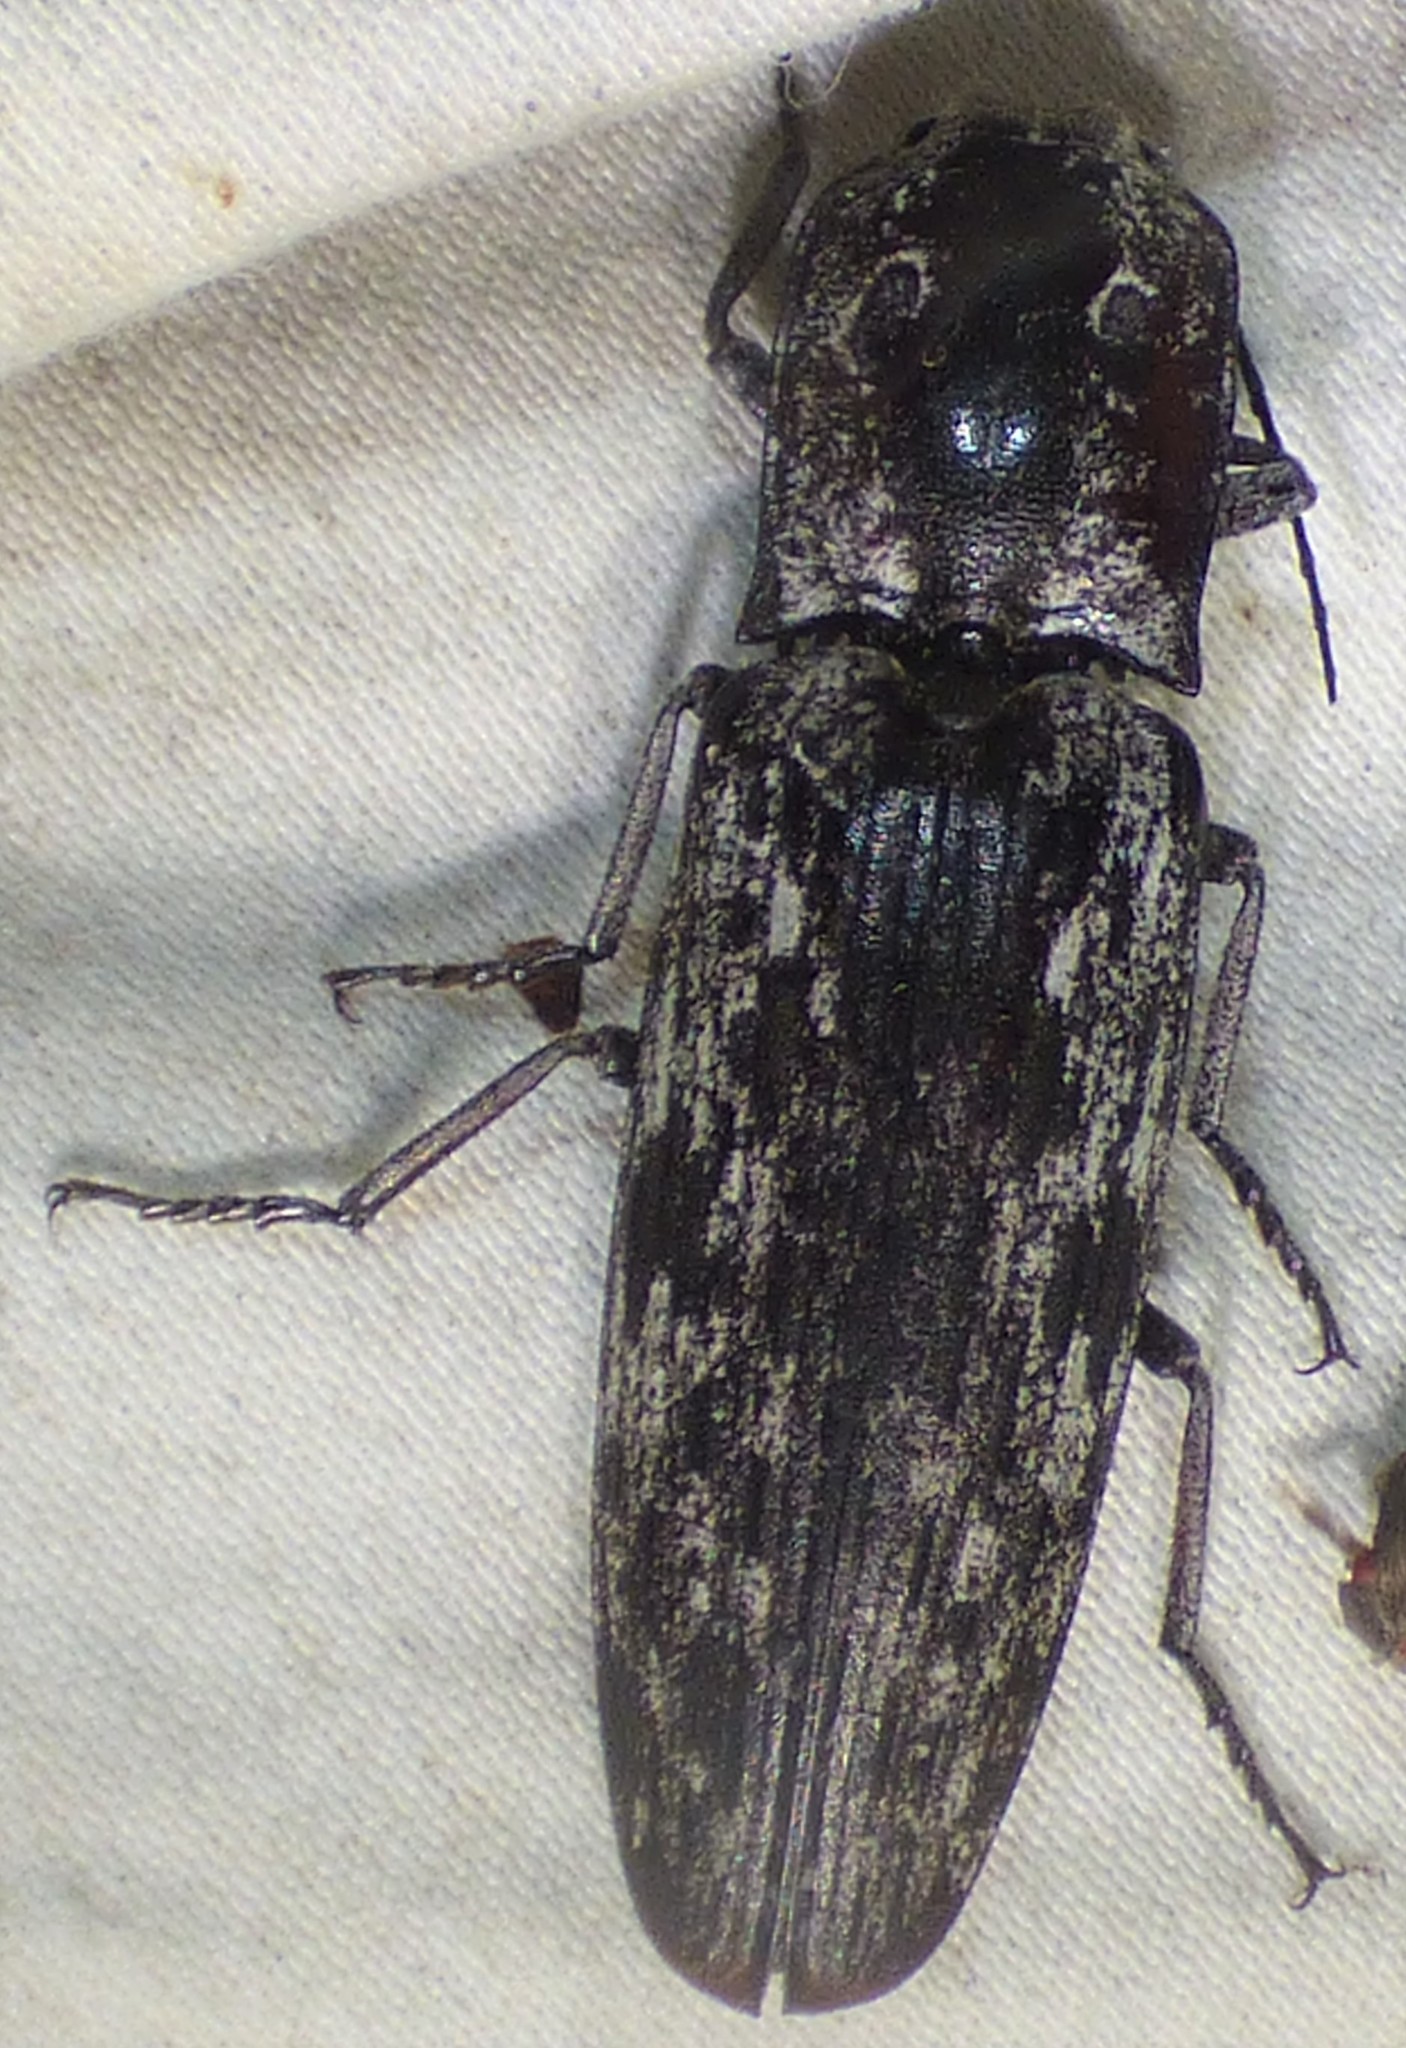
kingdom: Animalia
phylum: Arthropoda
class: Insecta
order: Coleoptera
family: Elateridae
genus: Alaus
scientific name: Alaus myops
